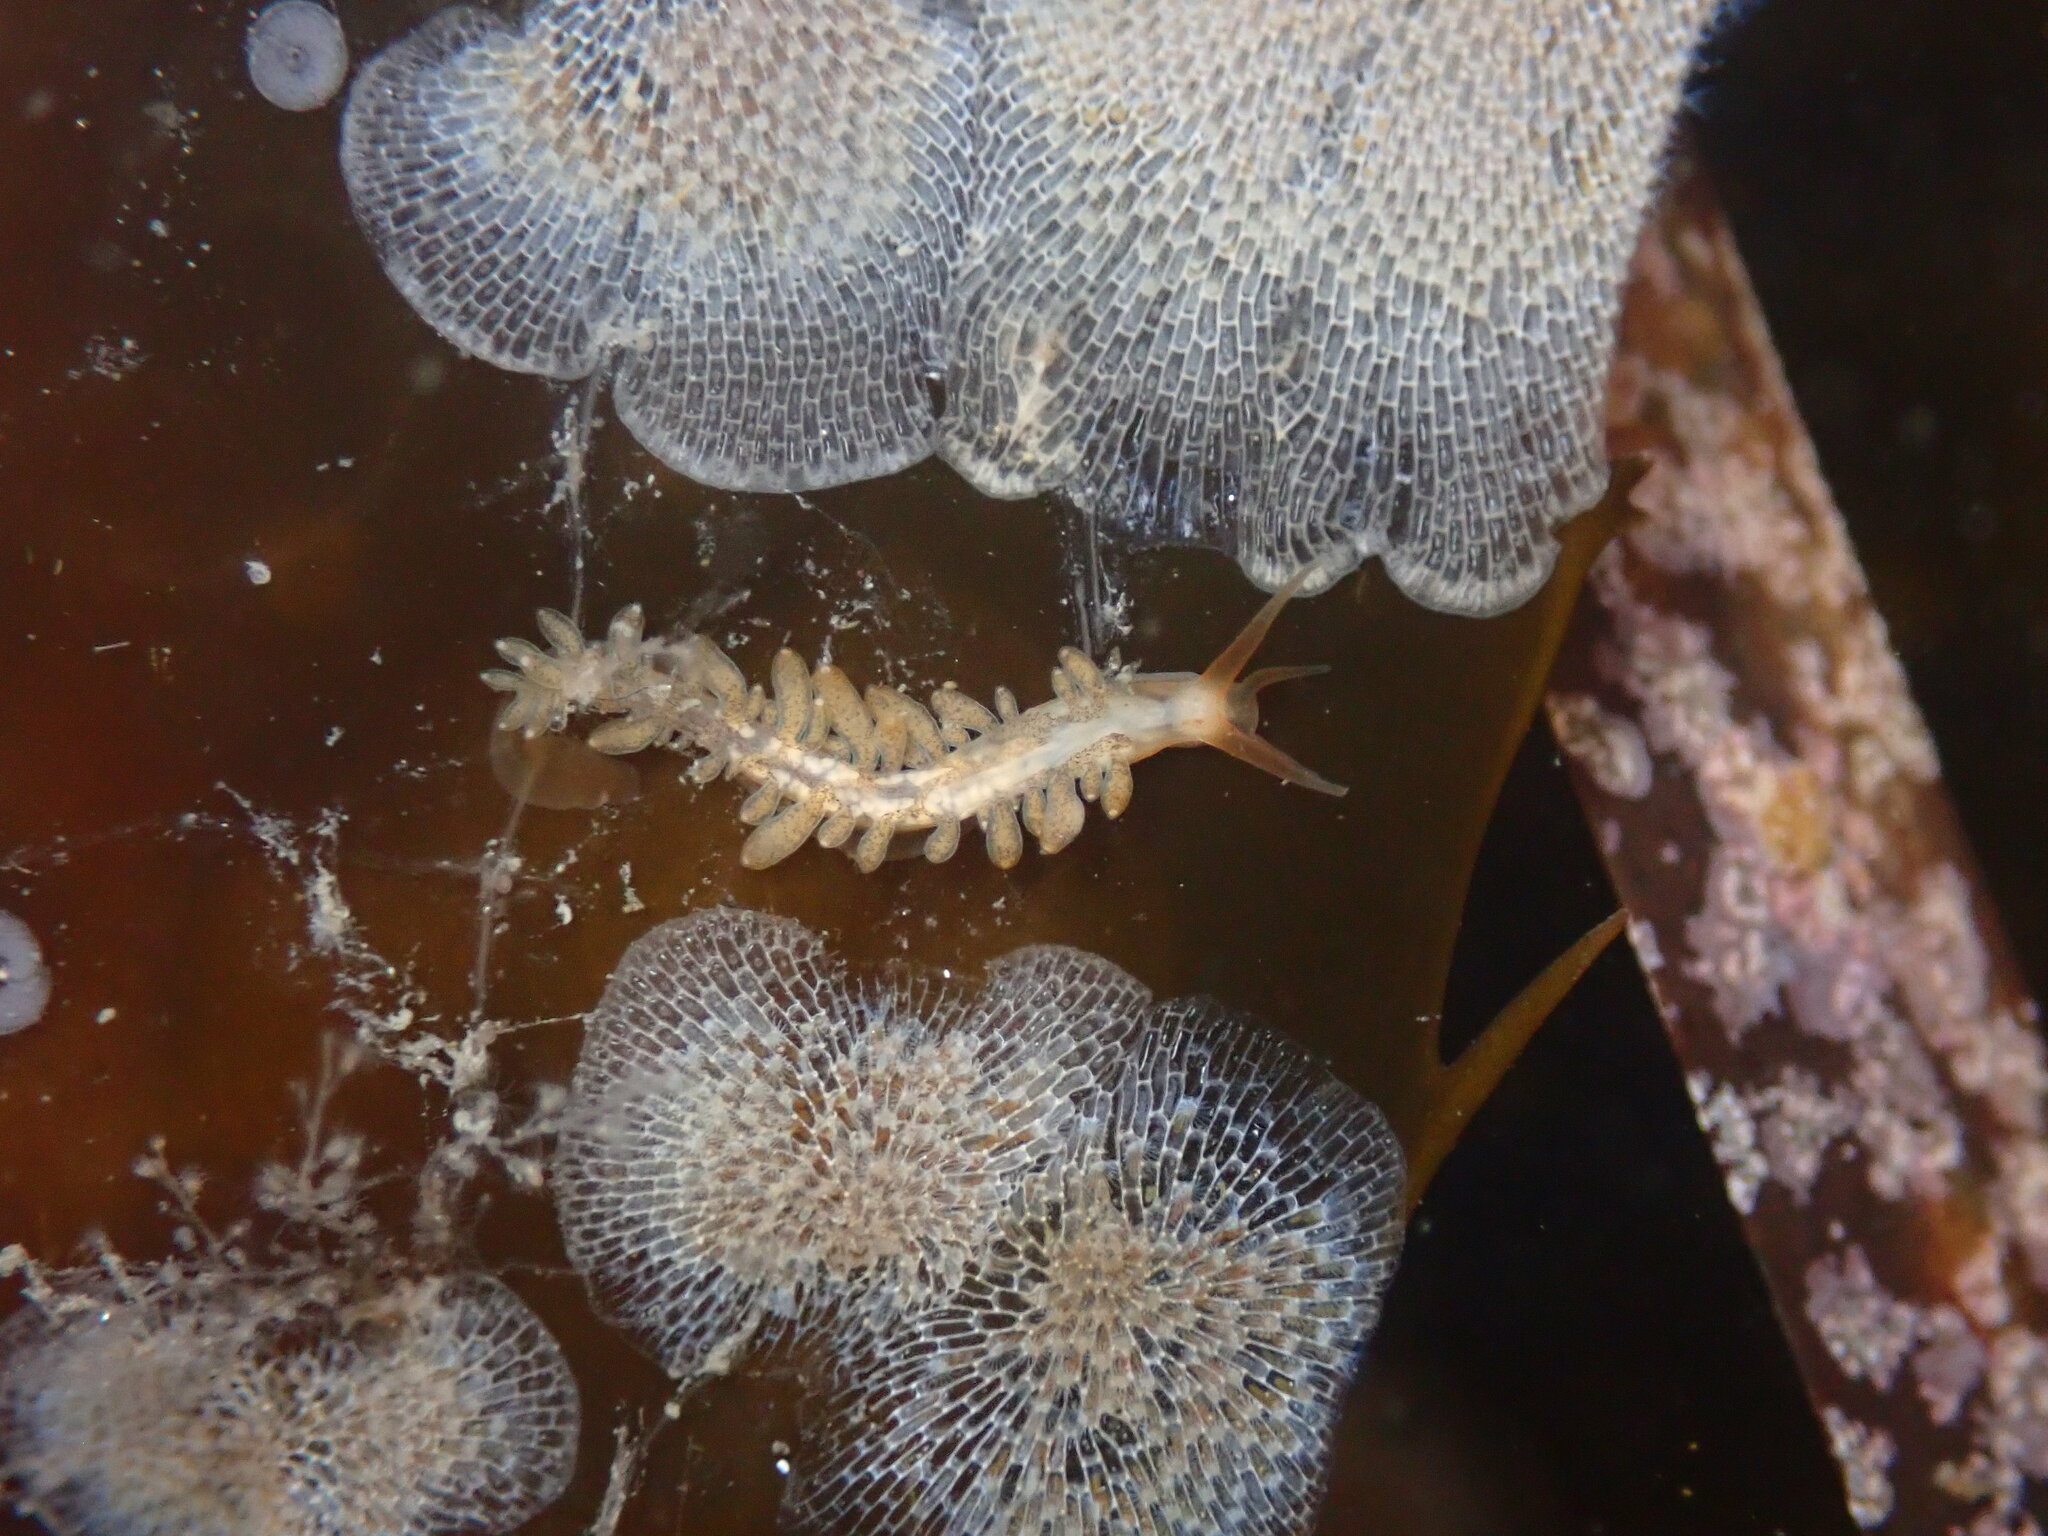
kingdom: Animalia
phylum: Mollusca
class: Gastropoda
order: Nudibranchia
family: Cuthonidae
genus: Cuthona
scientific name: Cuthona phoenix
